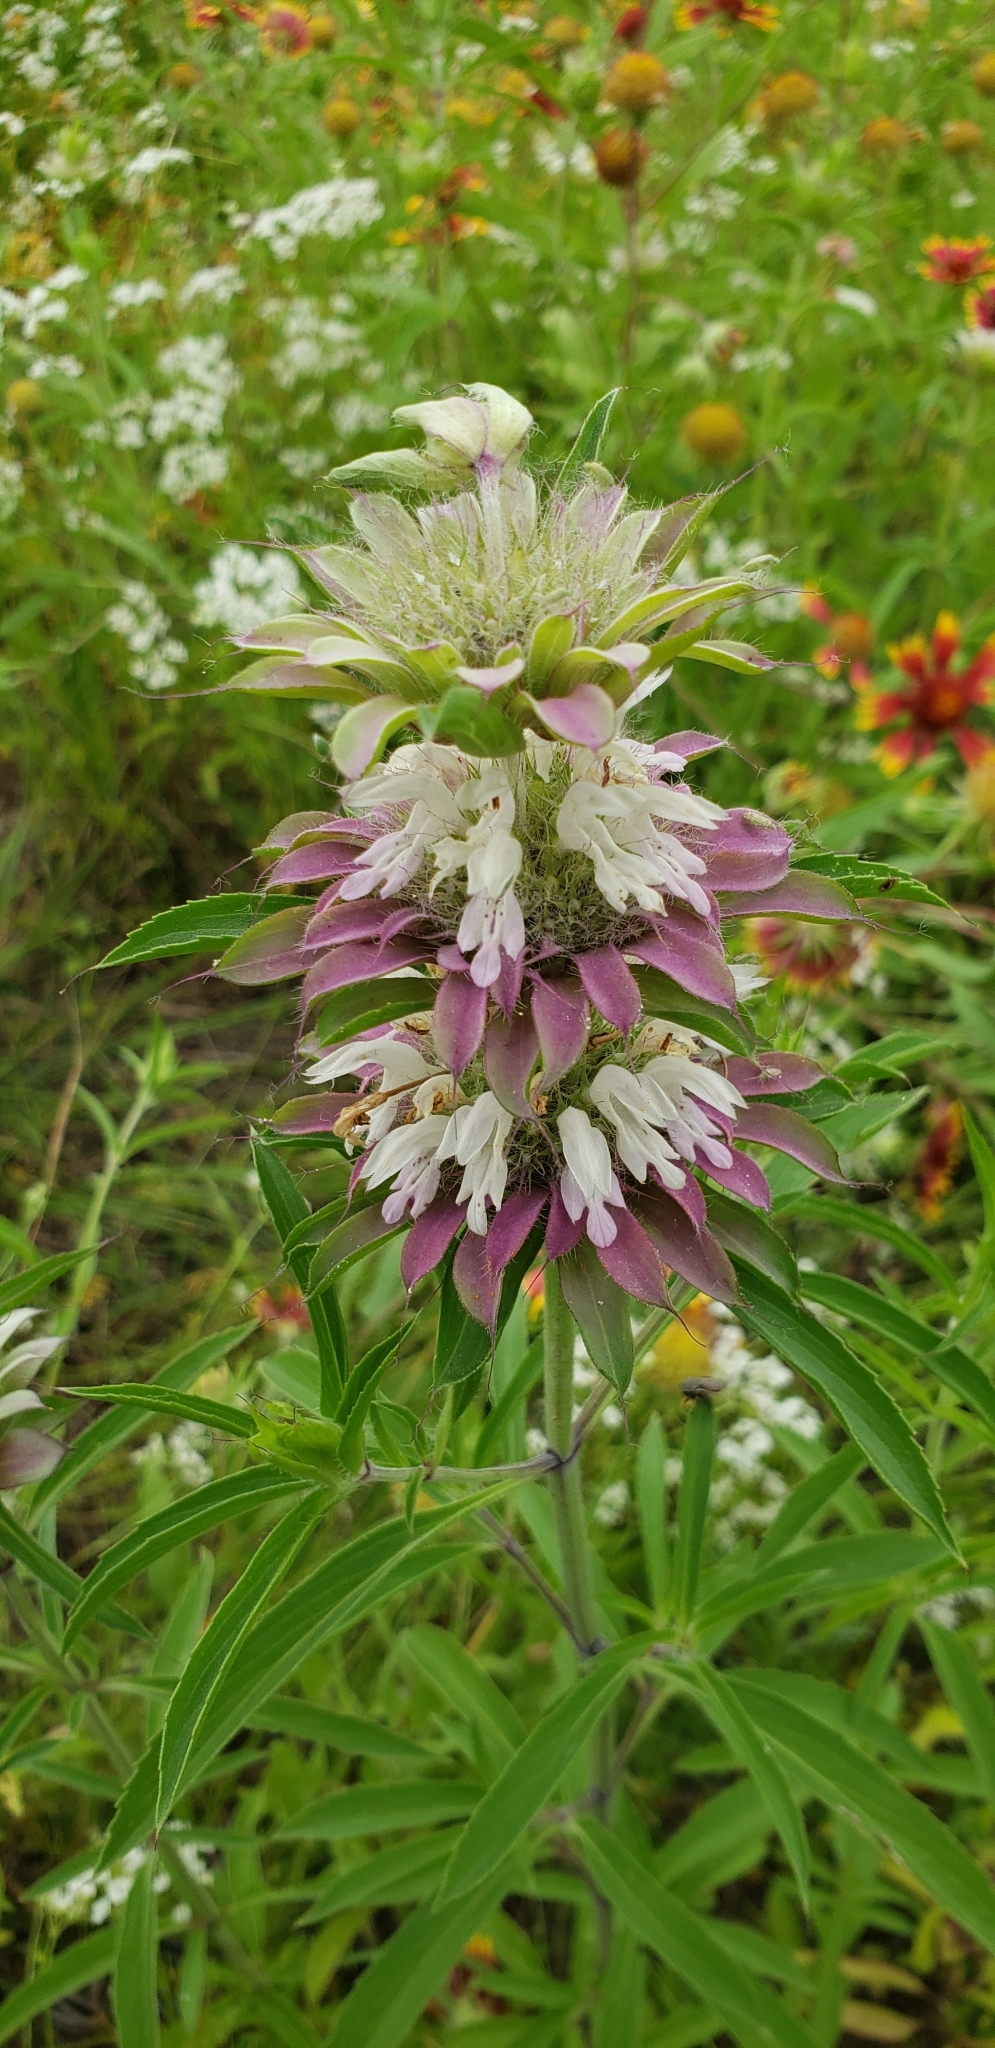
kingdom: Plantae
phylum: Tracheophyta
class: Magnoliopsida
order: Lamiales
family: Lamiaceae
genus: Monarda
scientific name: Monarda citriodora
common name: Lemon beebalm
